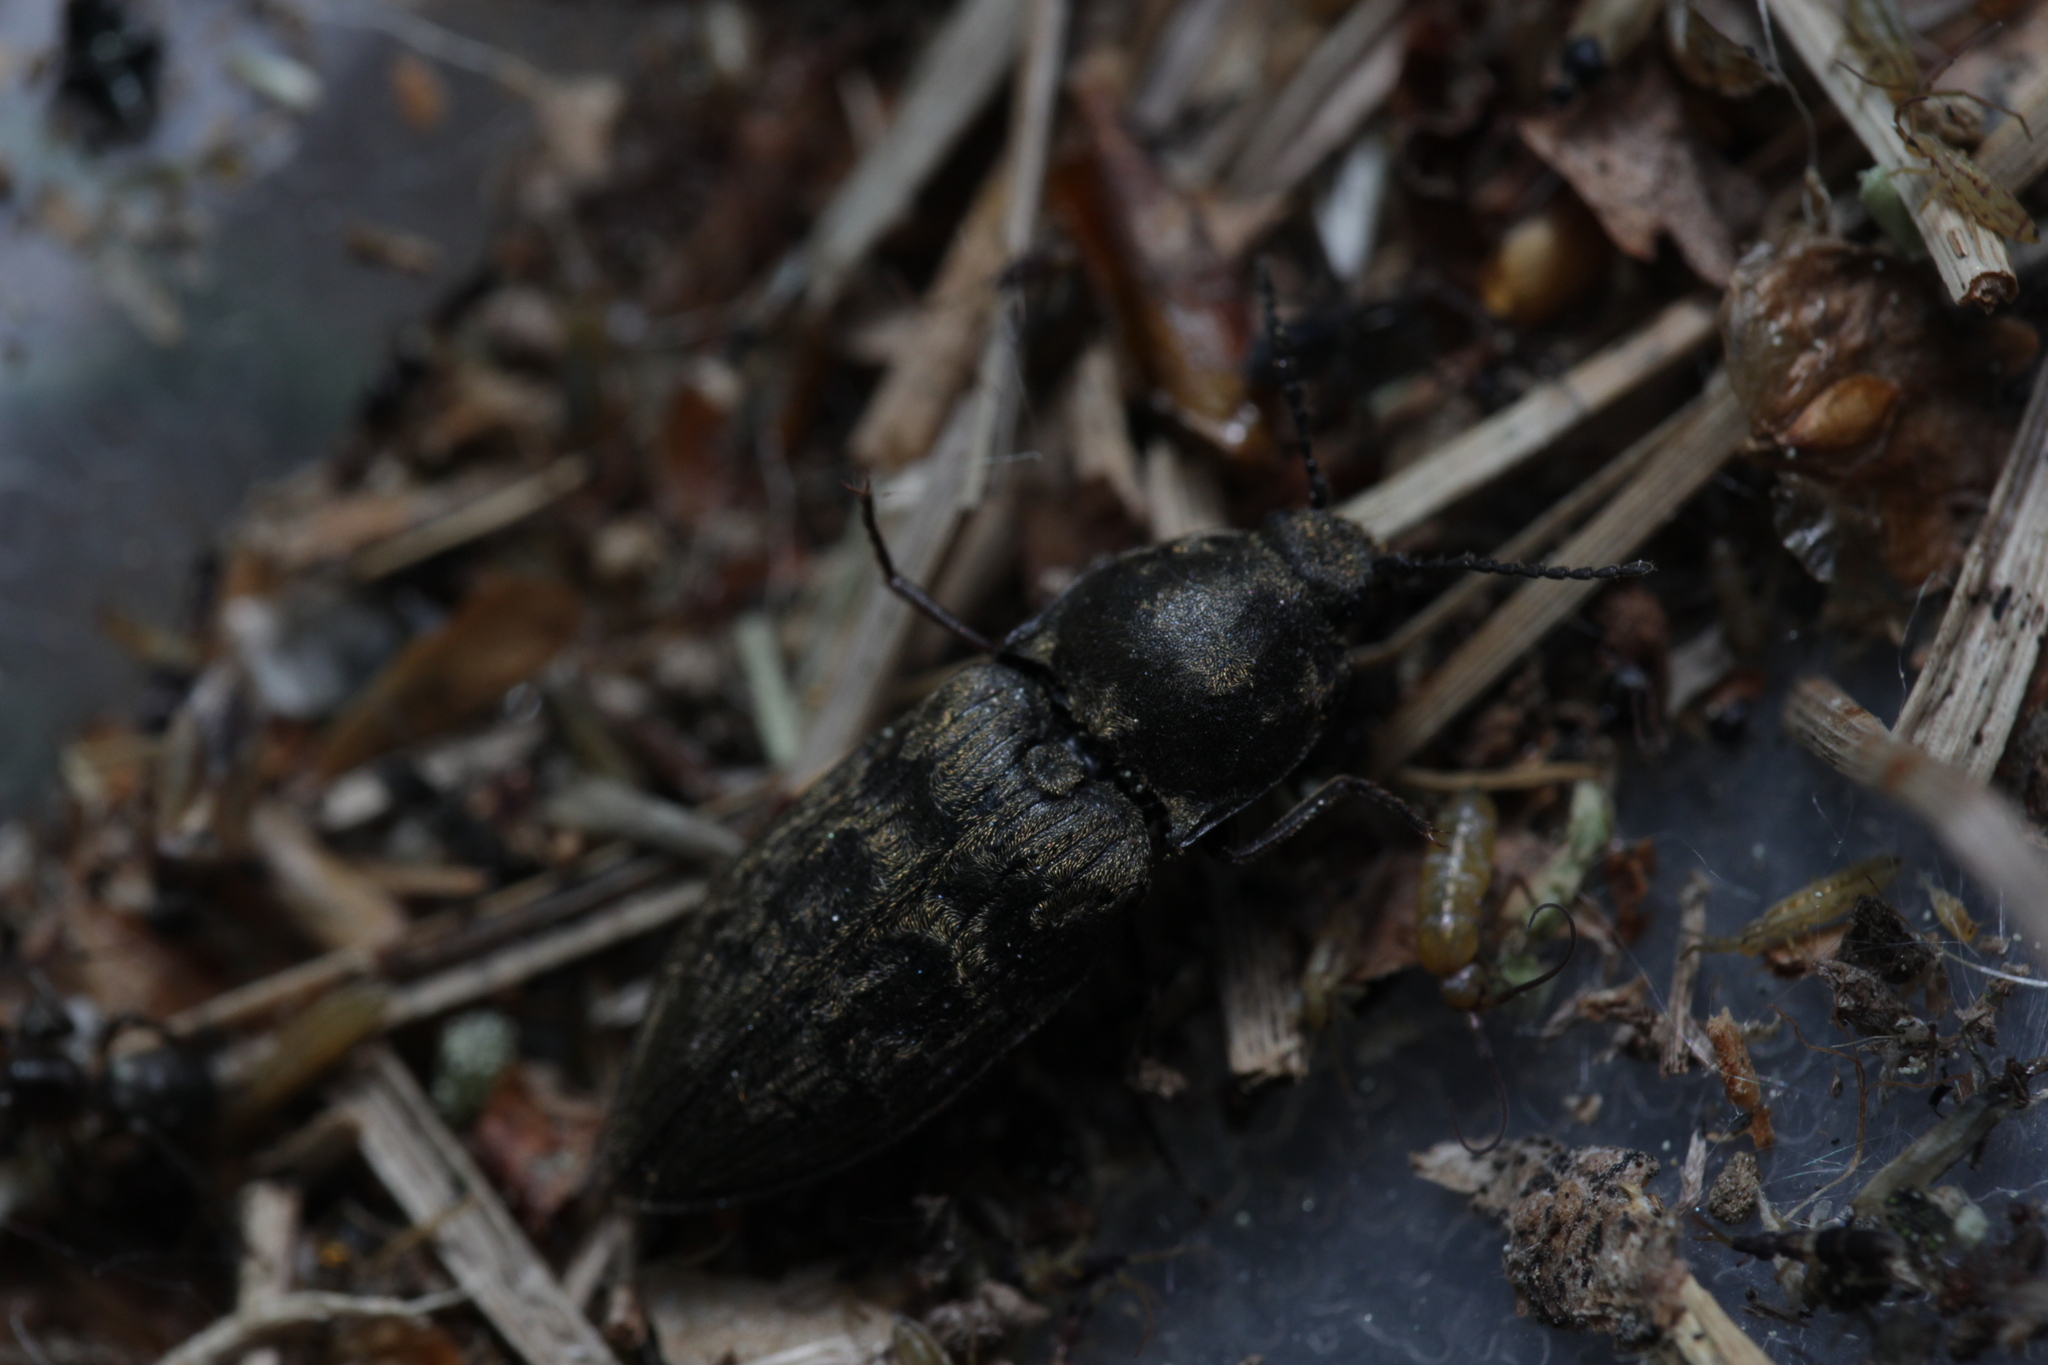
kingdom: Animalia
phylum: Arthropoda
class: Insecta
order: Coleoptera
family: Elateridae
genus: Prosternon
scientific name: Prosternon tessellatum
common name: Chequered click beetle
